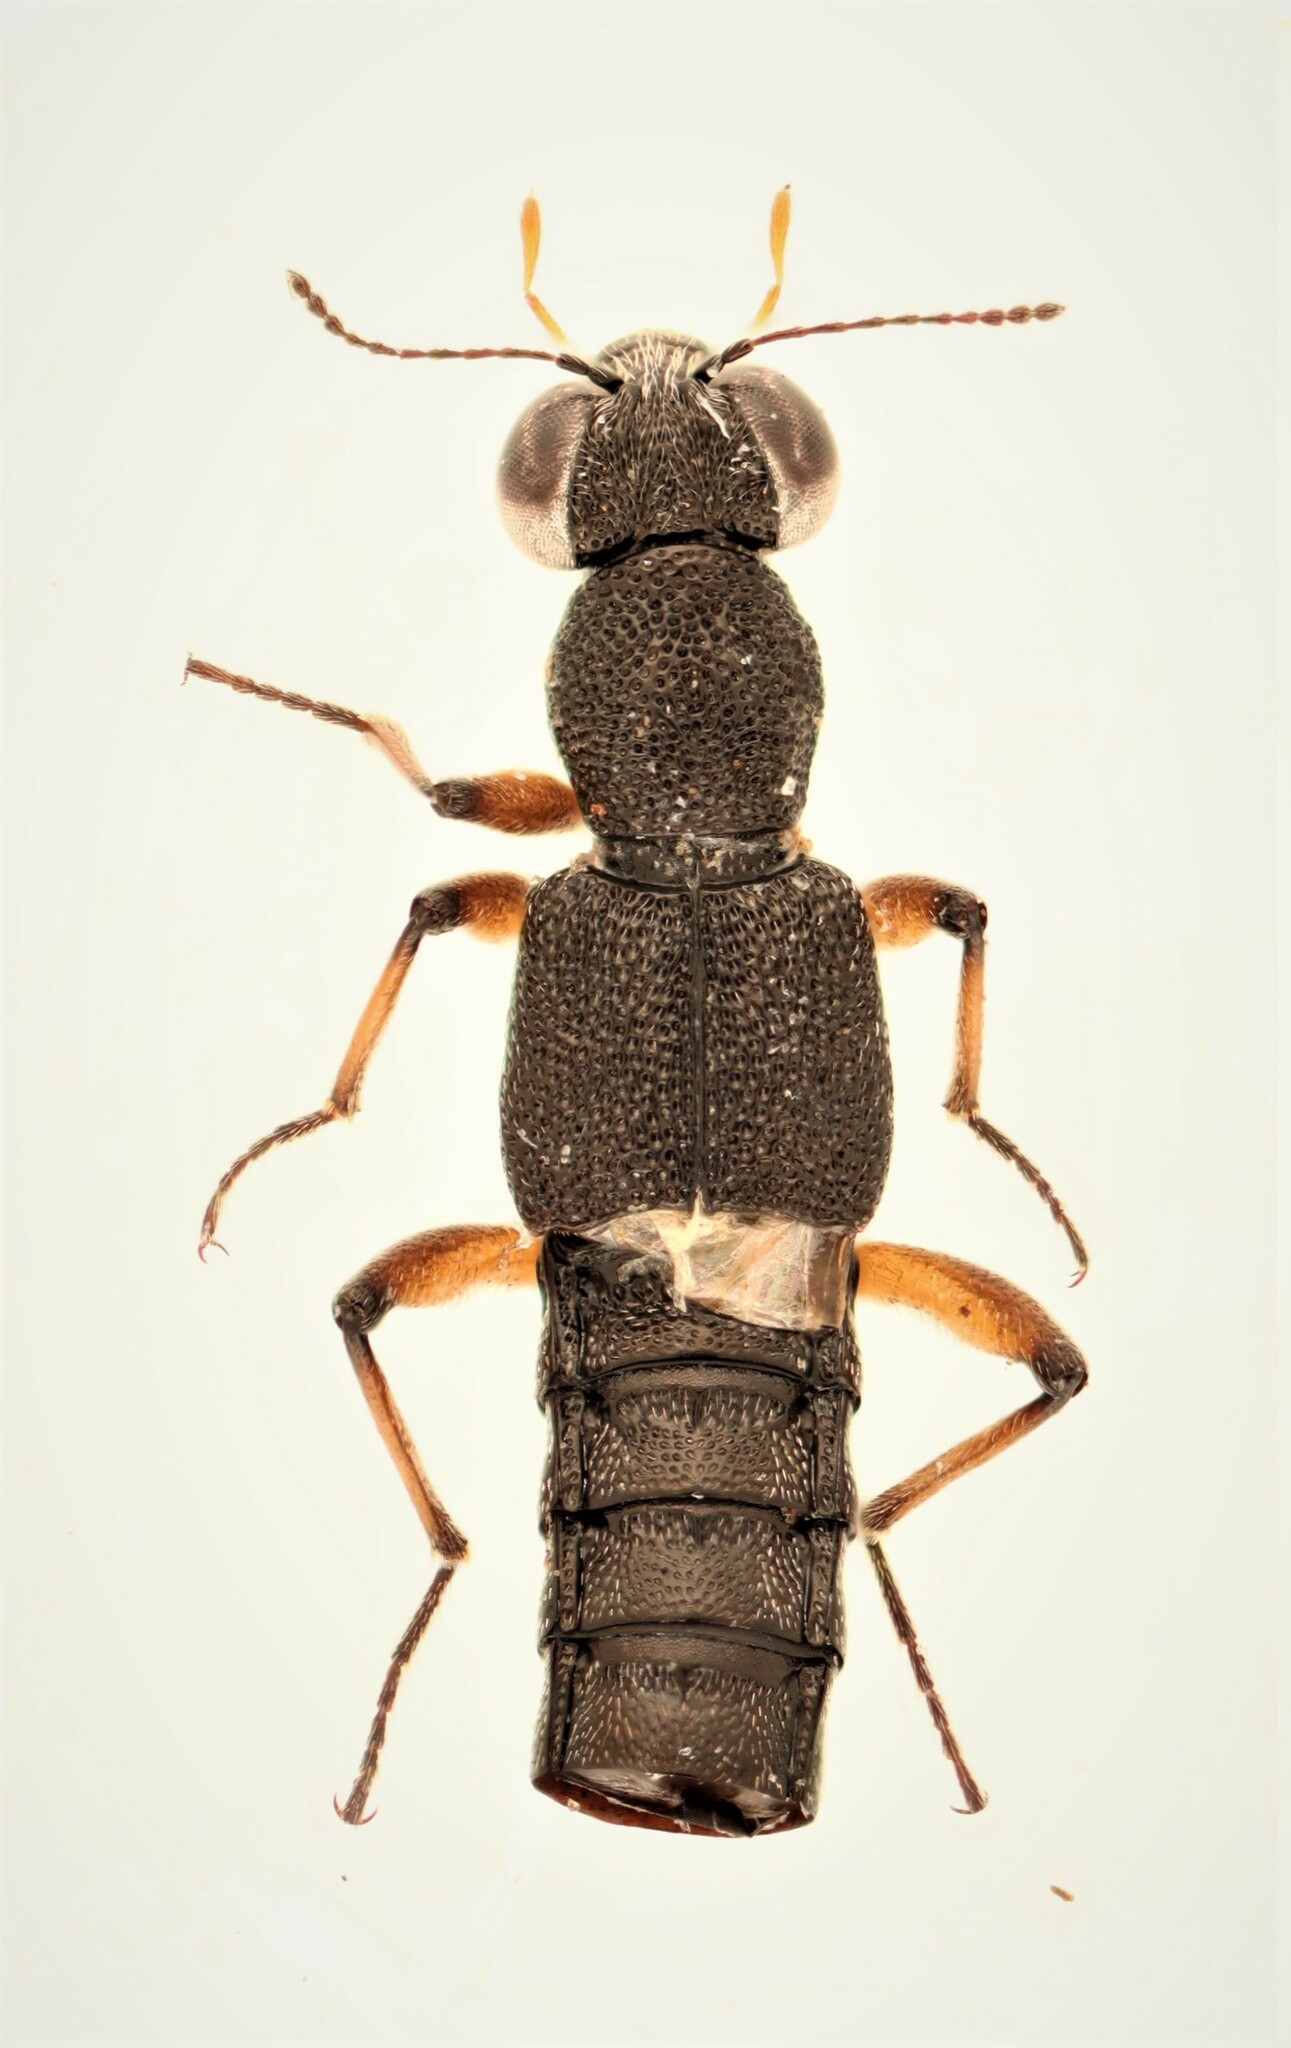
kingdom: Animalia
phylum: Arthropoda
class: Insecta
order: Coleoptera
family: Staphylinidae
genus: Stenus
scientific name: Stenus clavicornis
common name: Staph beetle
